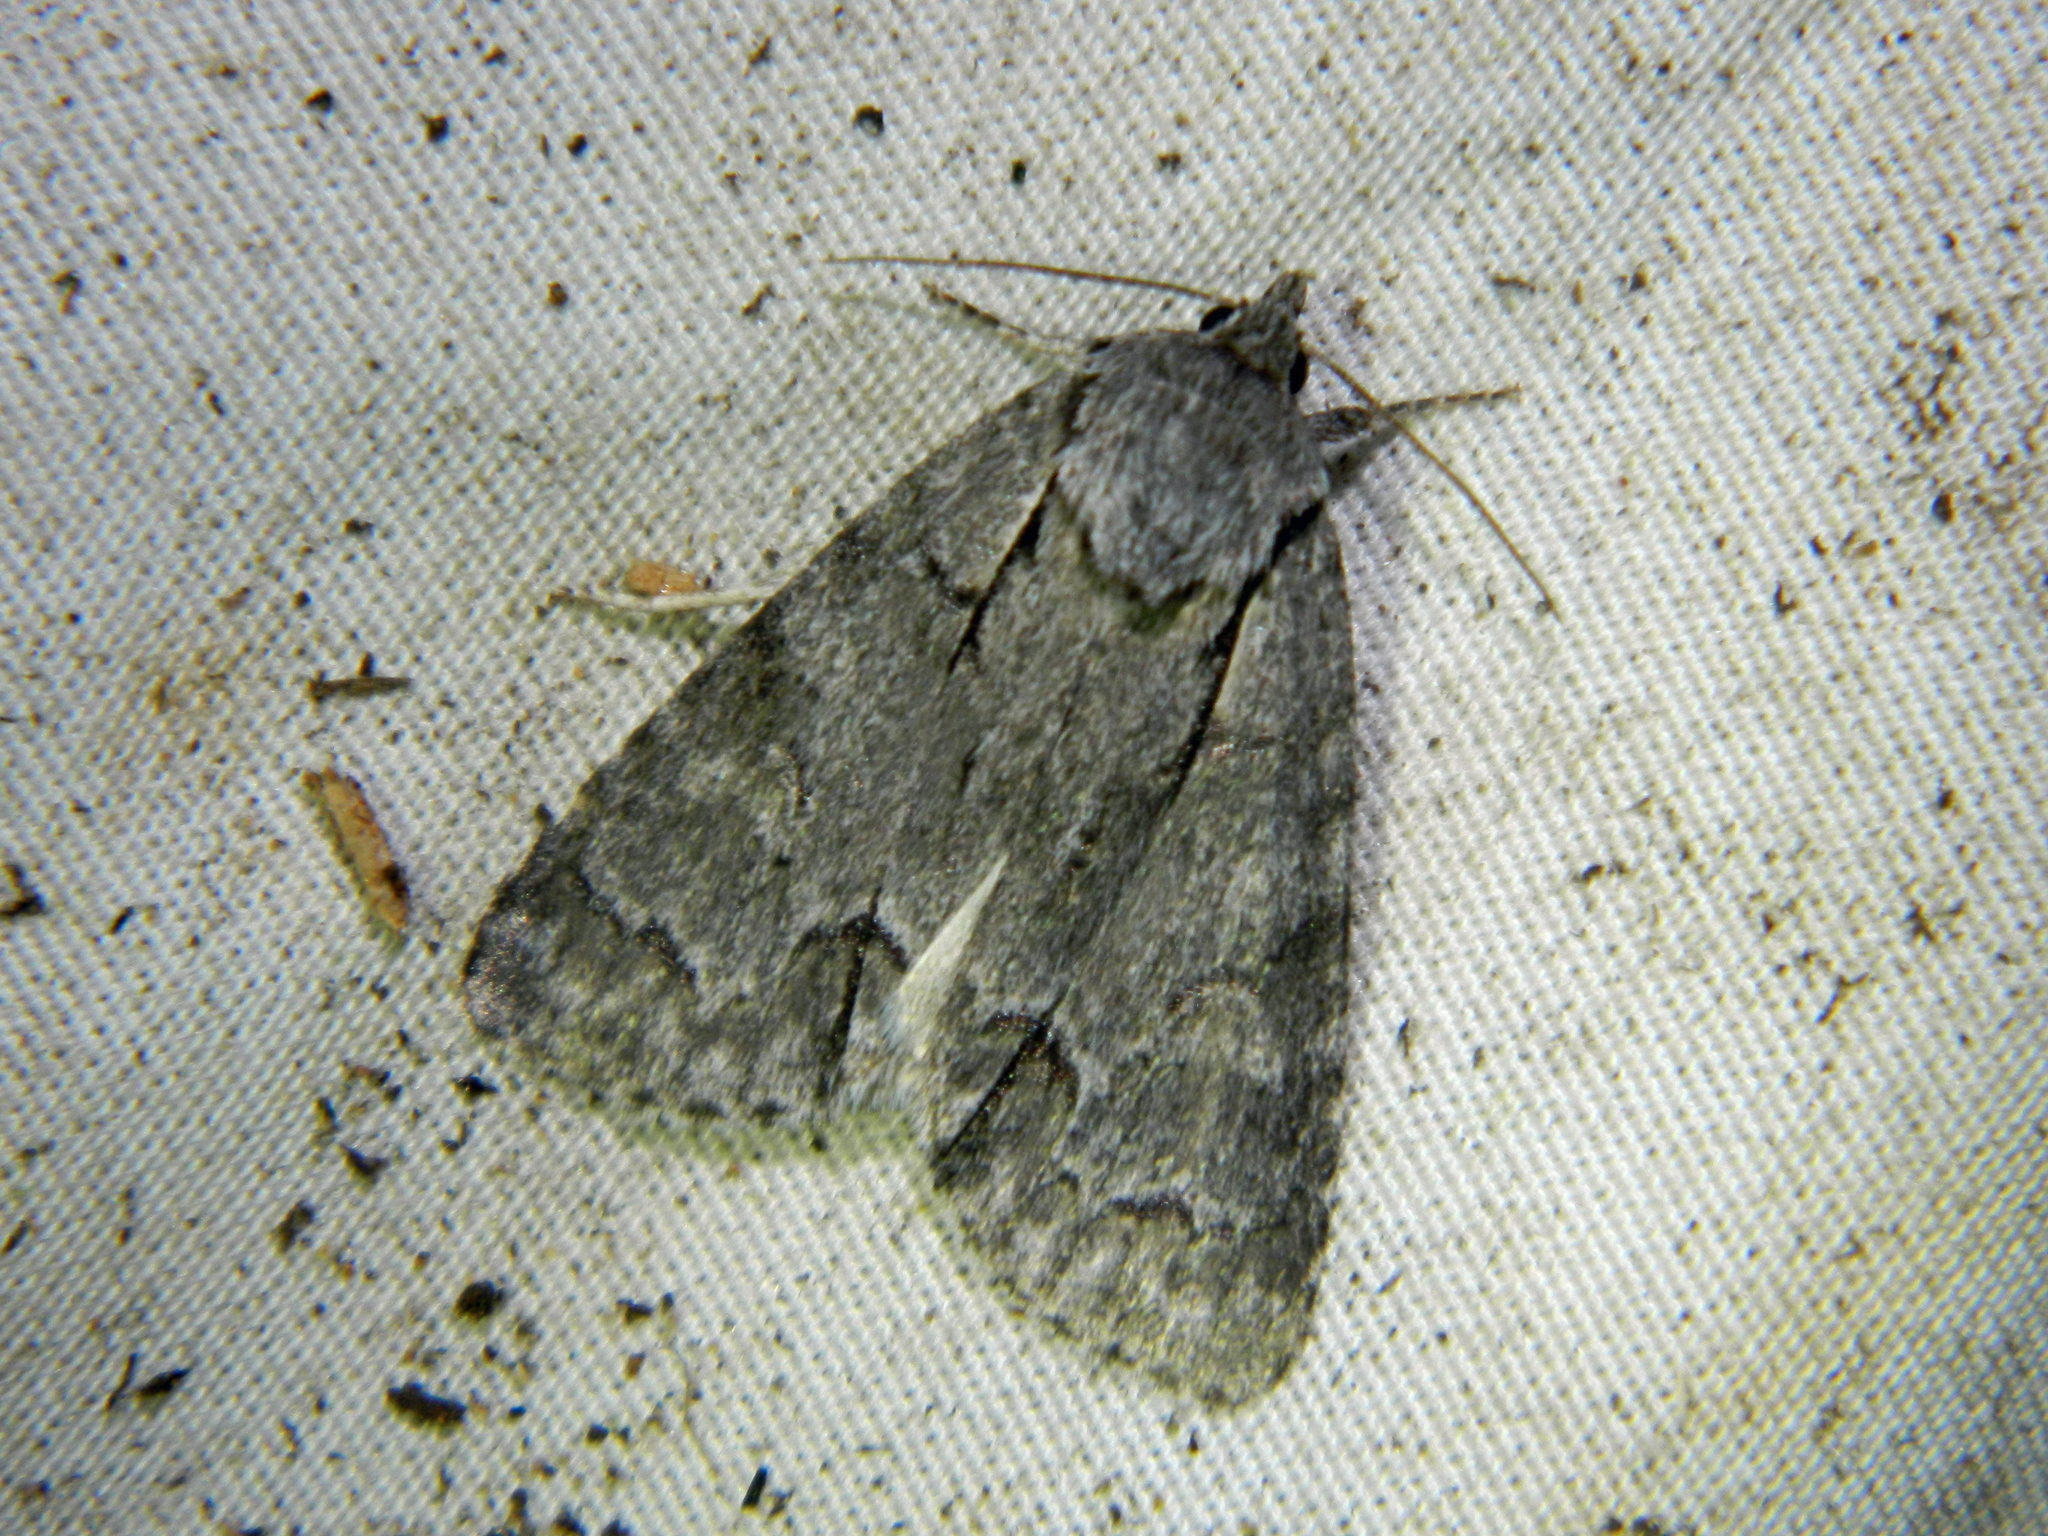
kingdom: Animalia
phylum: Arthropoda
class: Insecta
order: Lepidoptera
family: Noctuidae
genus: Acronicta
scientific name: Acronicta grisea
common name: Gray dagger
